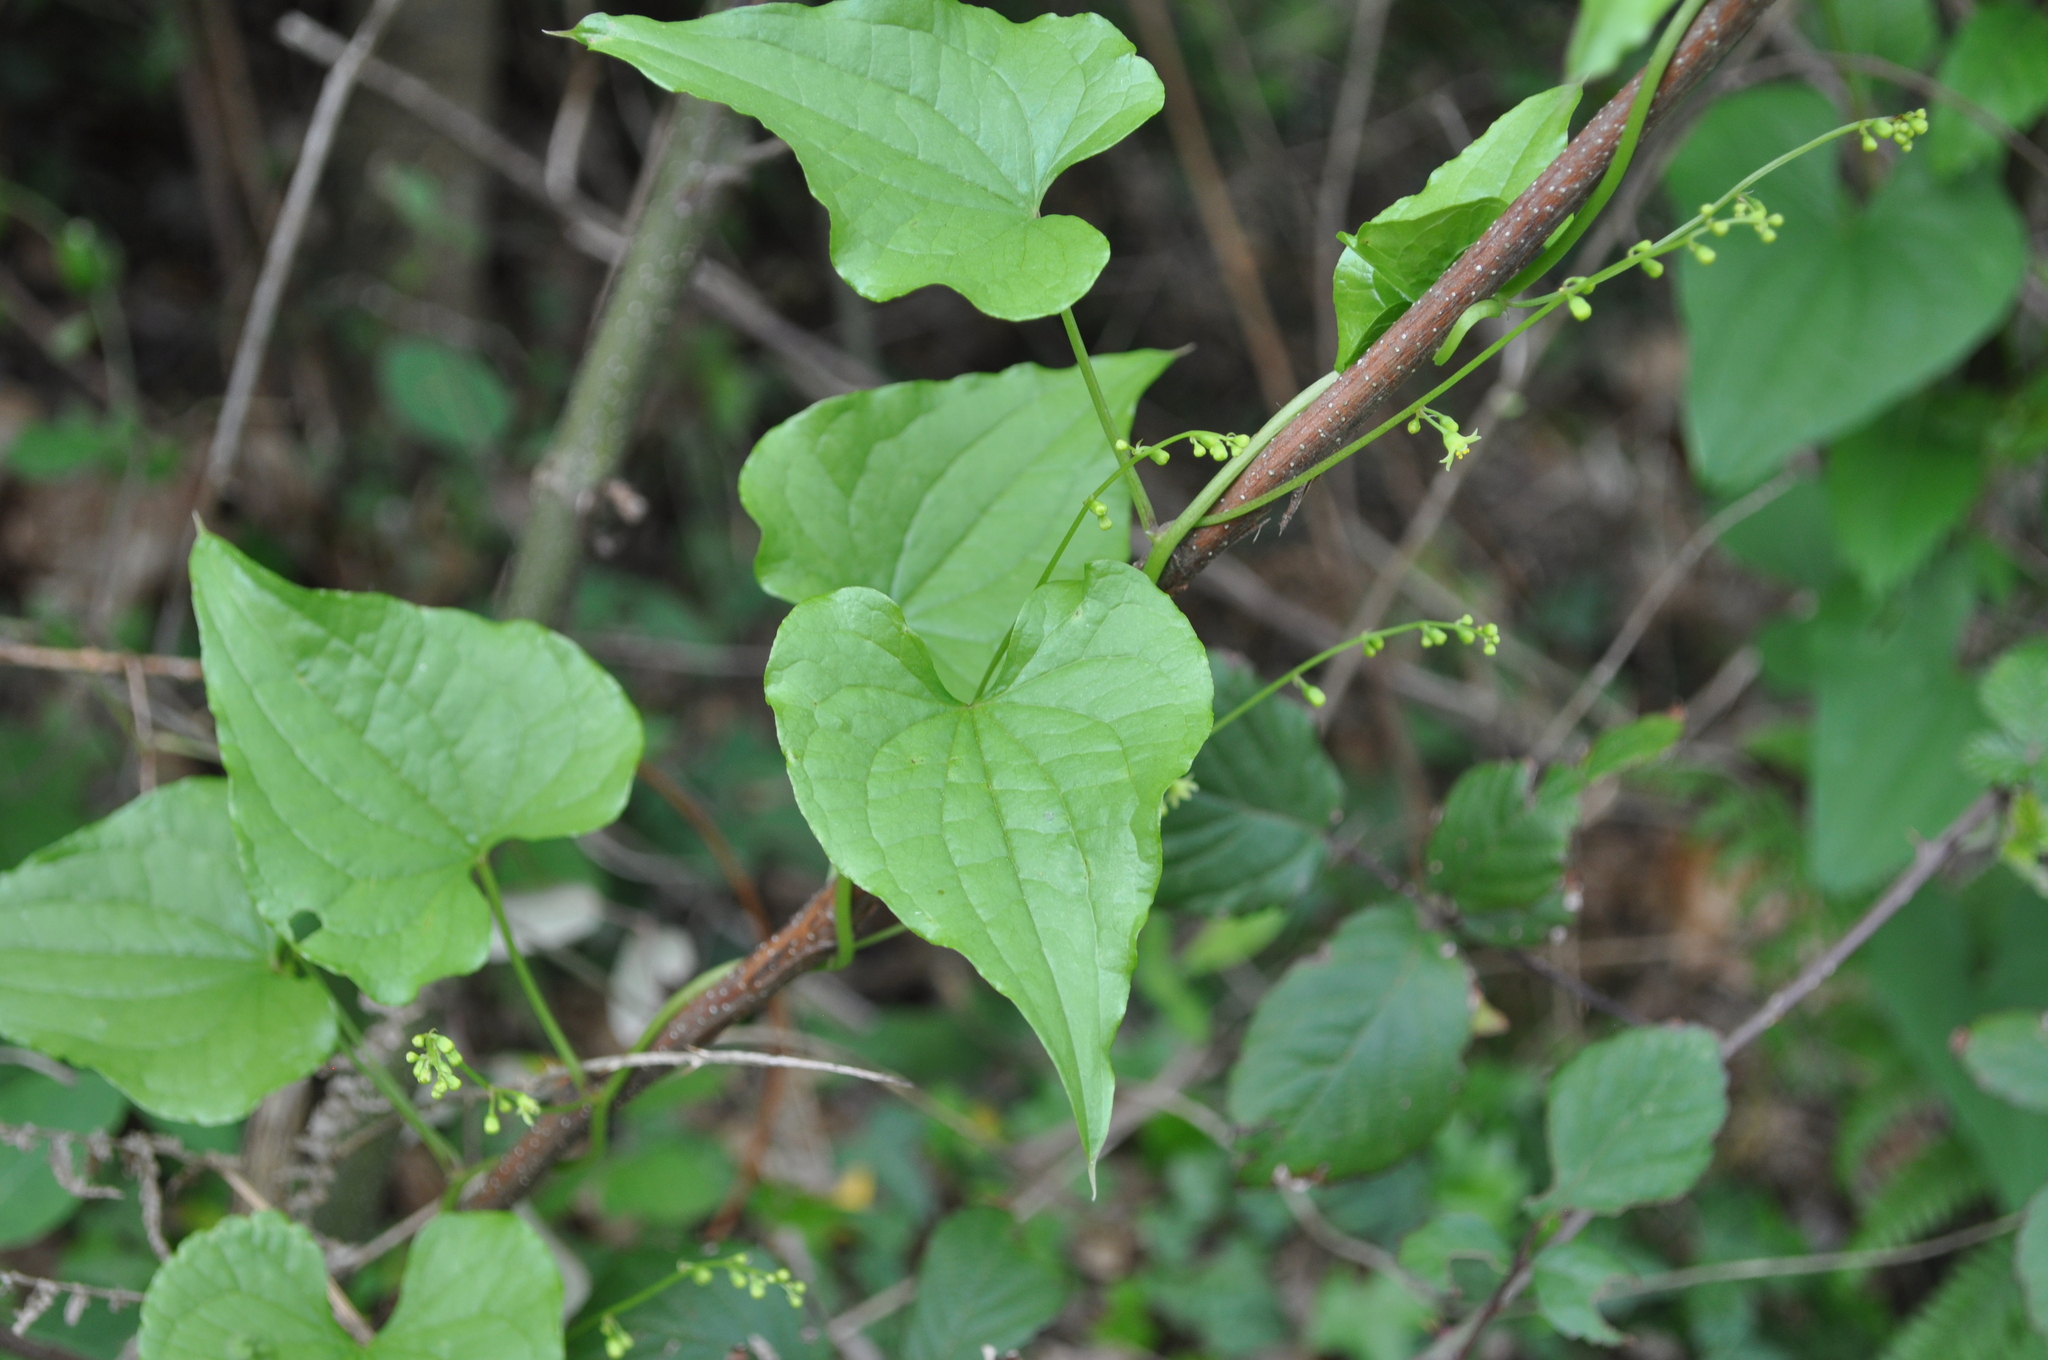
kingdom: Plantae
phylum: Tracheophyta
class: Liliopsida
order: Dioscoreales
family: Dioscoreaceae
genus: Dioscorea
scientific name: Dioscorea communis
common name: Black-bindweed
